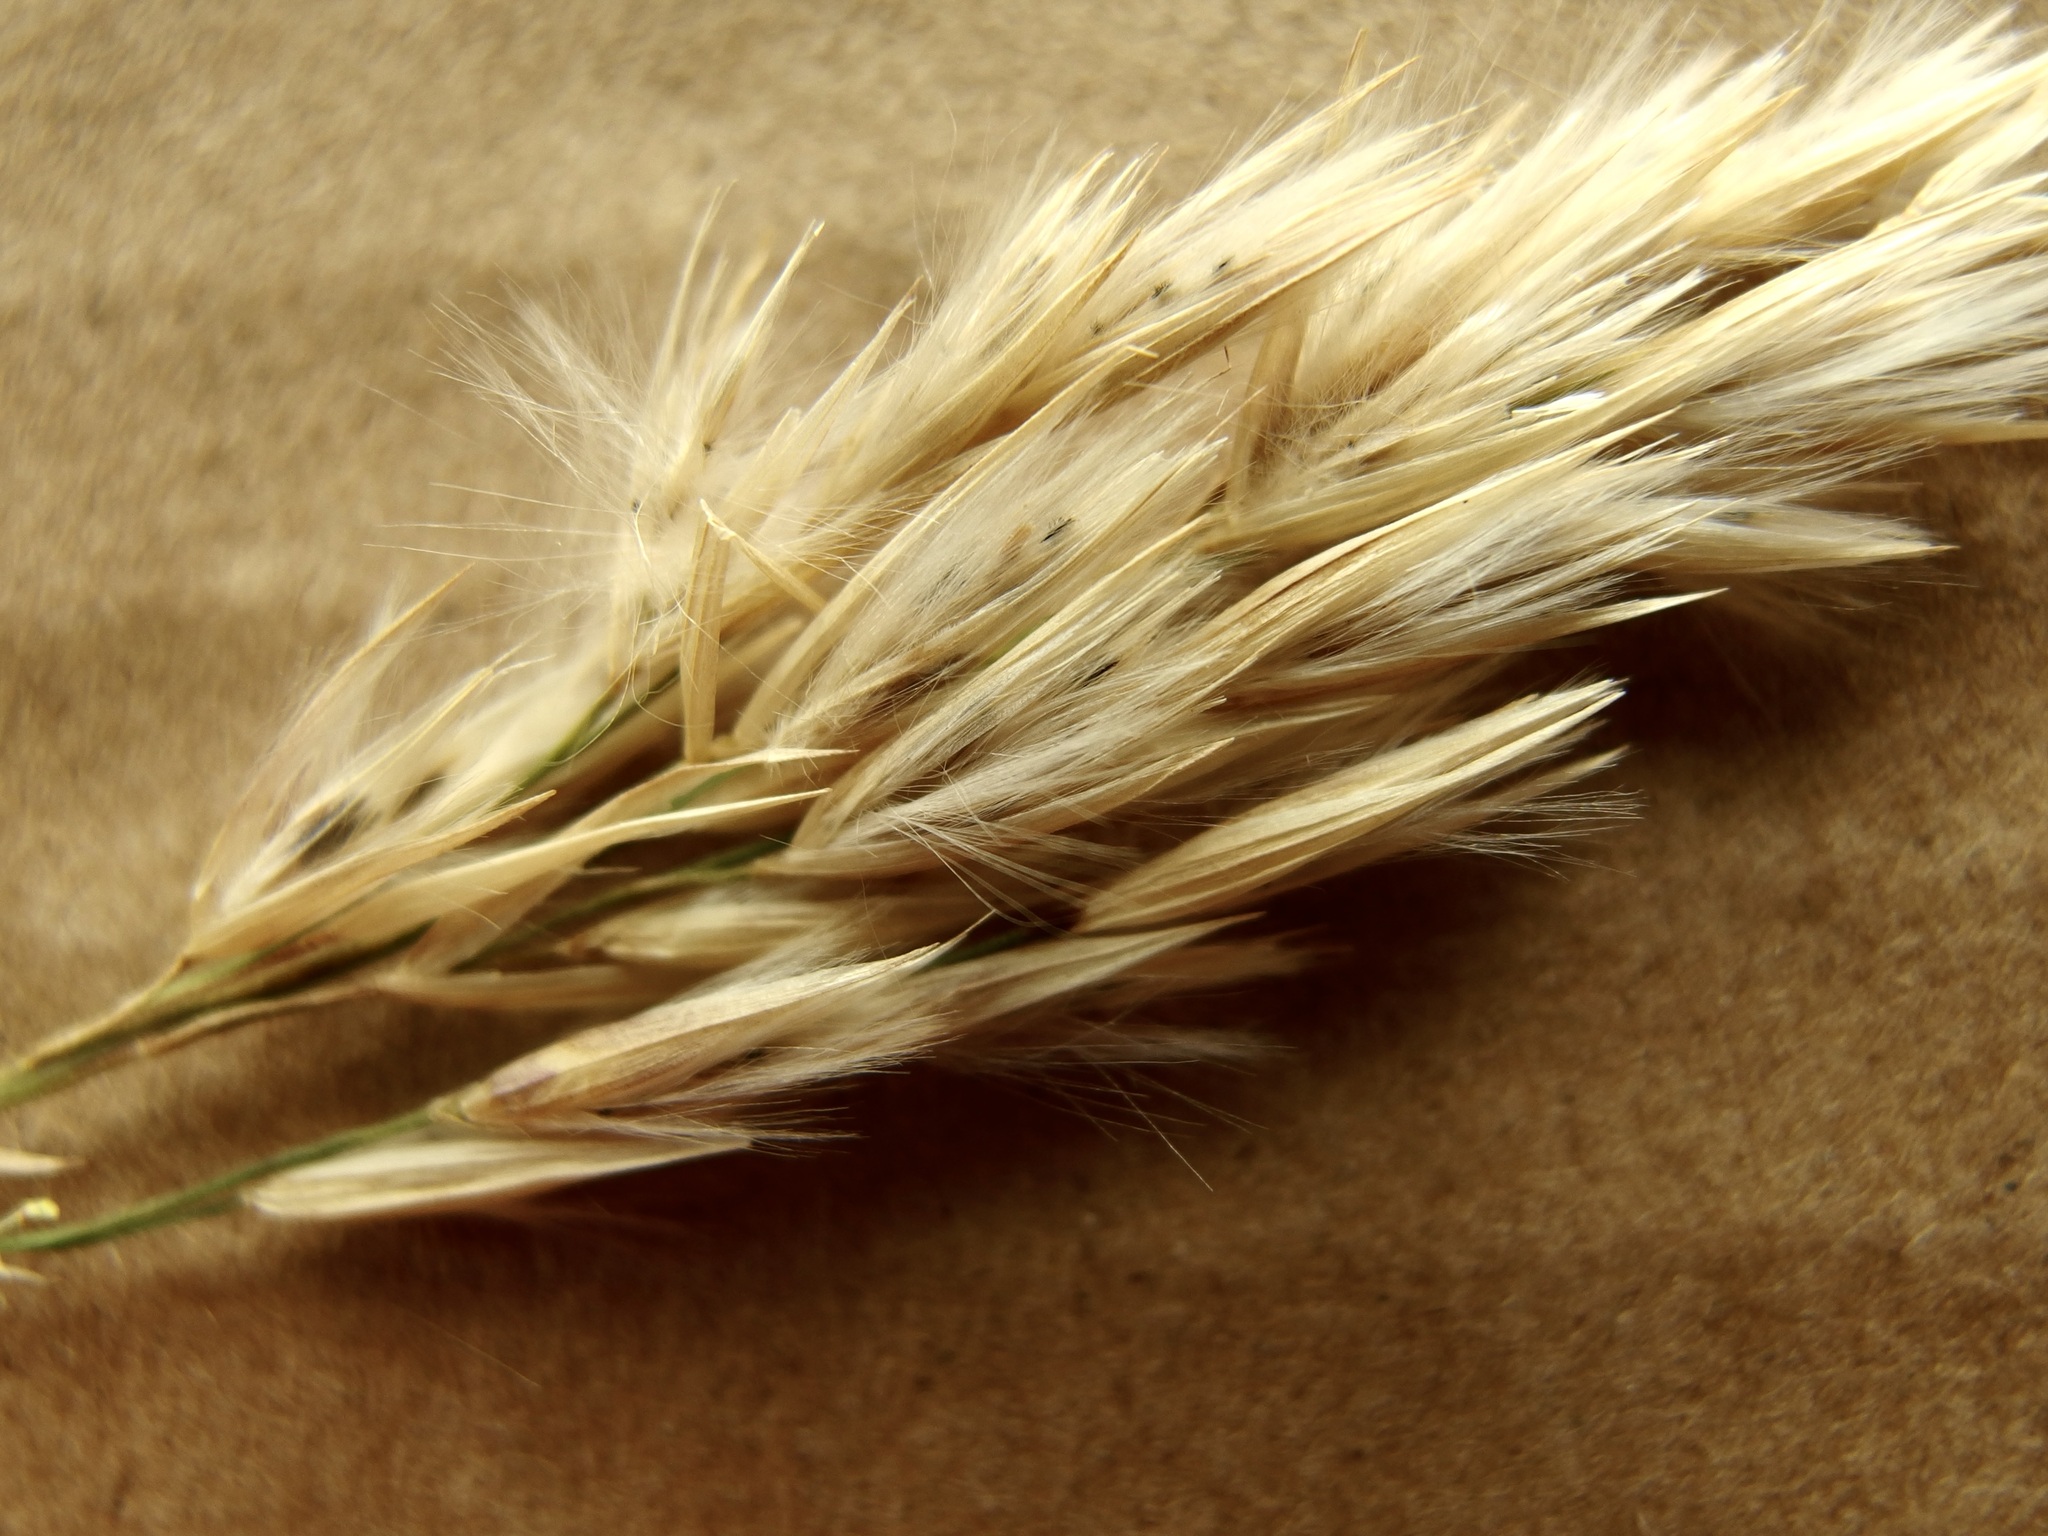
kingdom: Plantae
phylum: Tracheophyta
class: Liliopsida
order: Poales
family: Poaceae
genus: Arundo
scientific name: Arundo donax
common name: Giant reed
